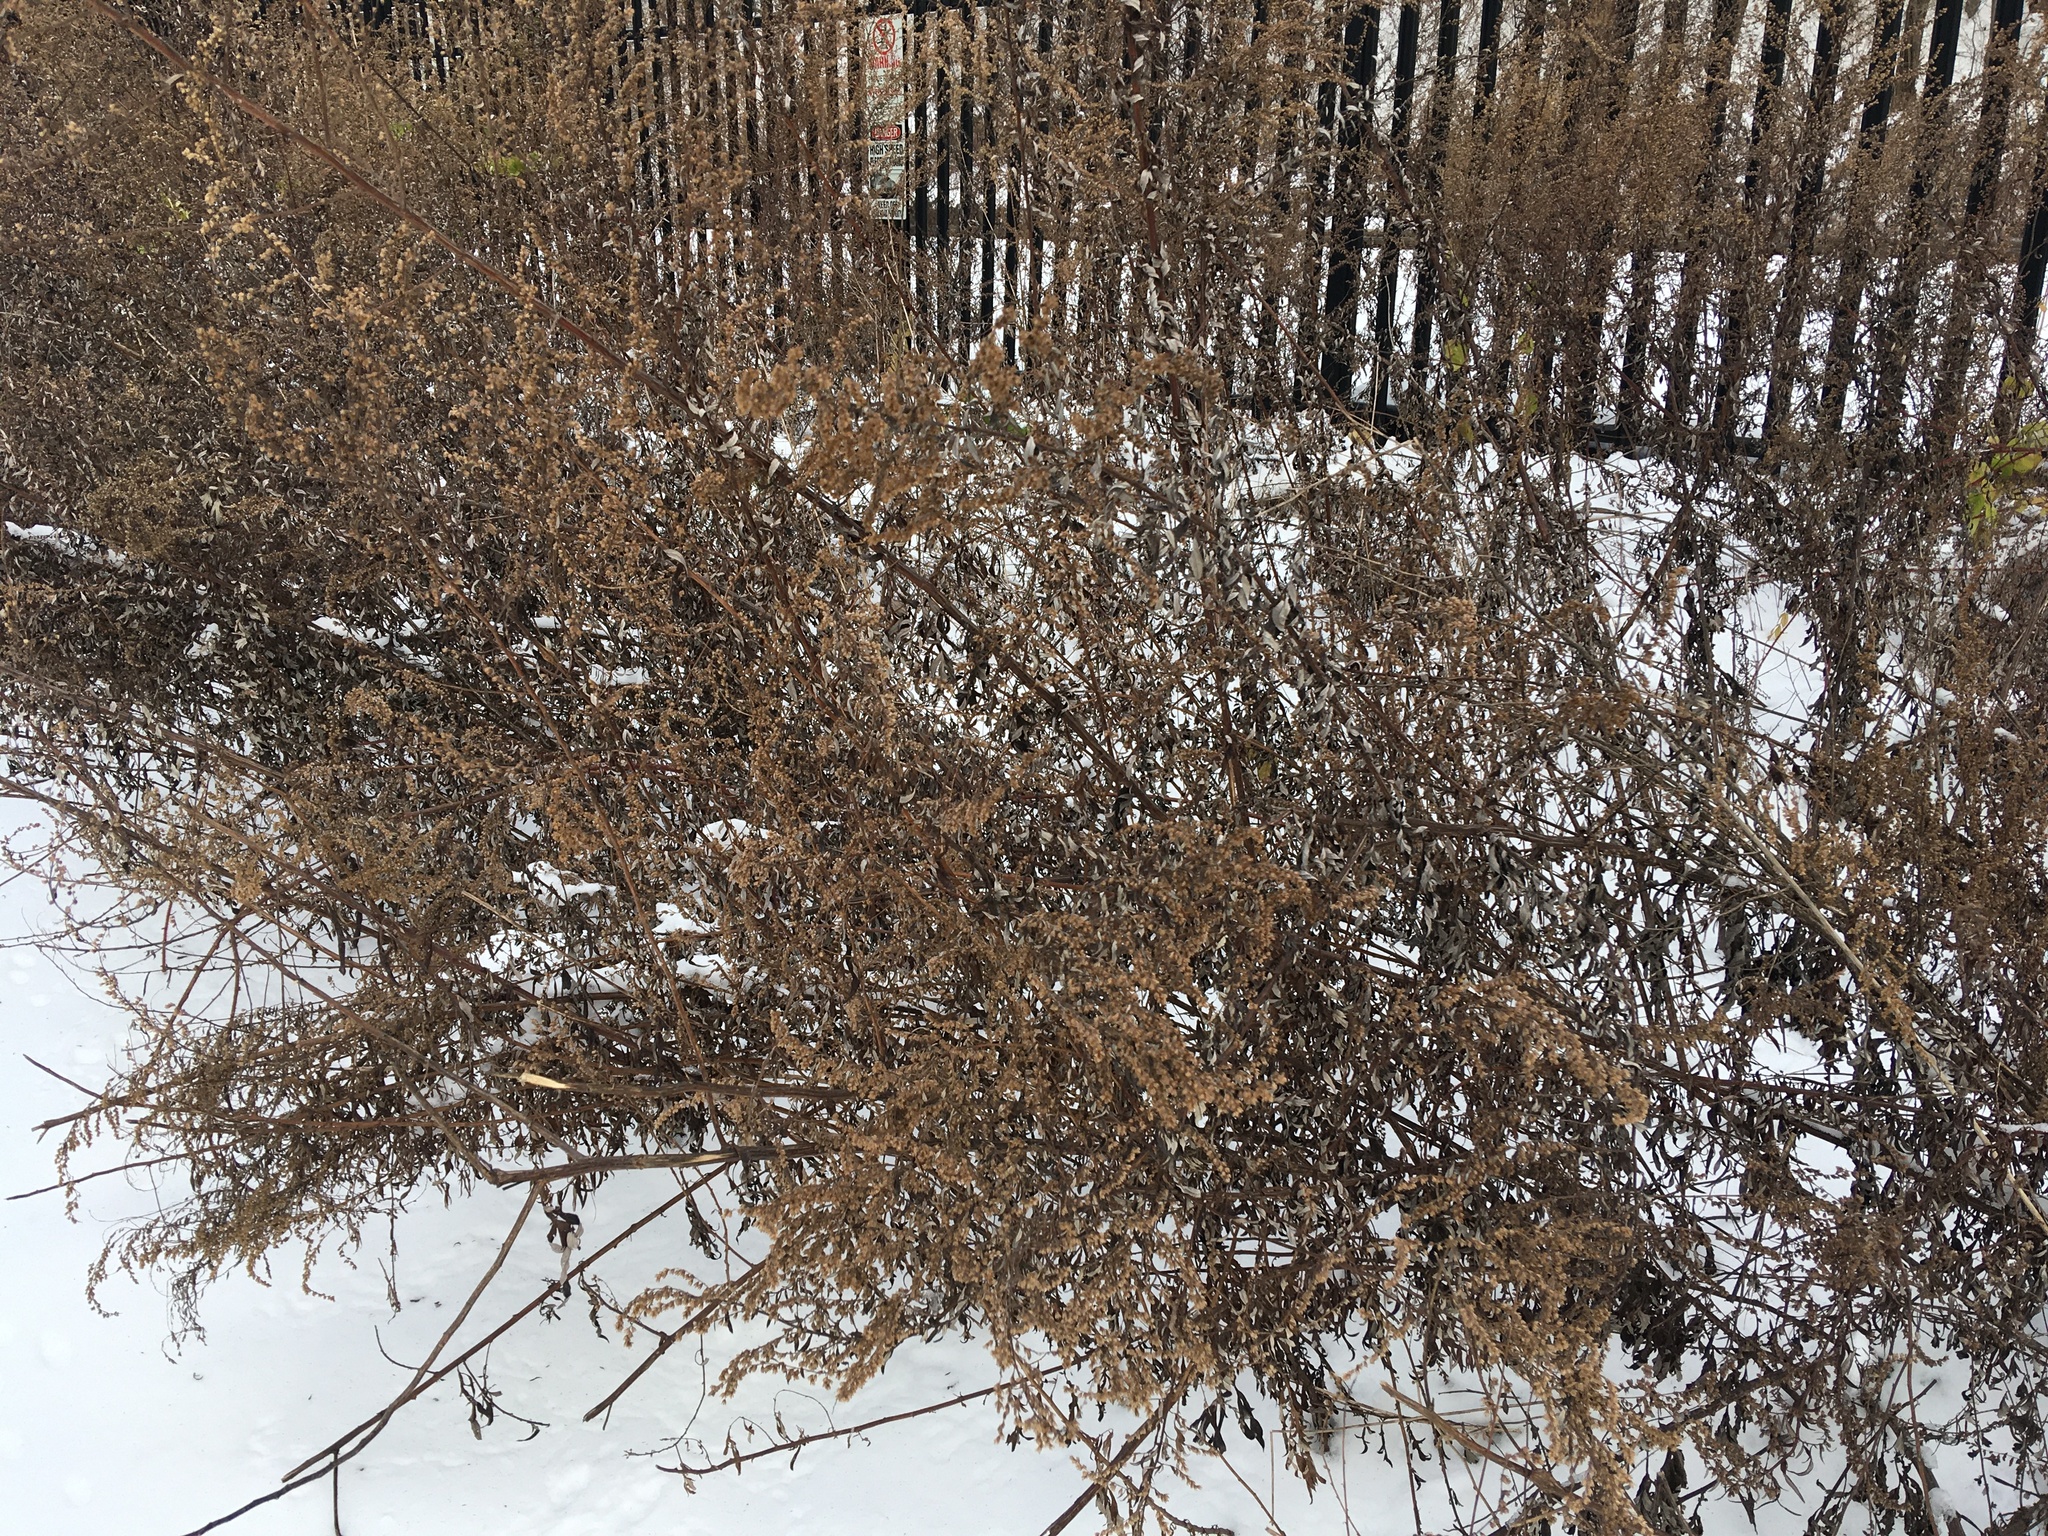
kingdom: Plantae
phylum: Tracheophyta
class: Magnoliopsida
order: Asterales
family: Asteraceae
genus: Artemisia
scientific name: Artemisia vulgaris
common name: Mugwort
